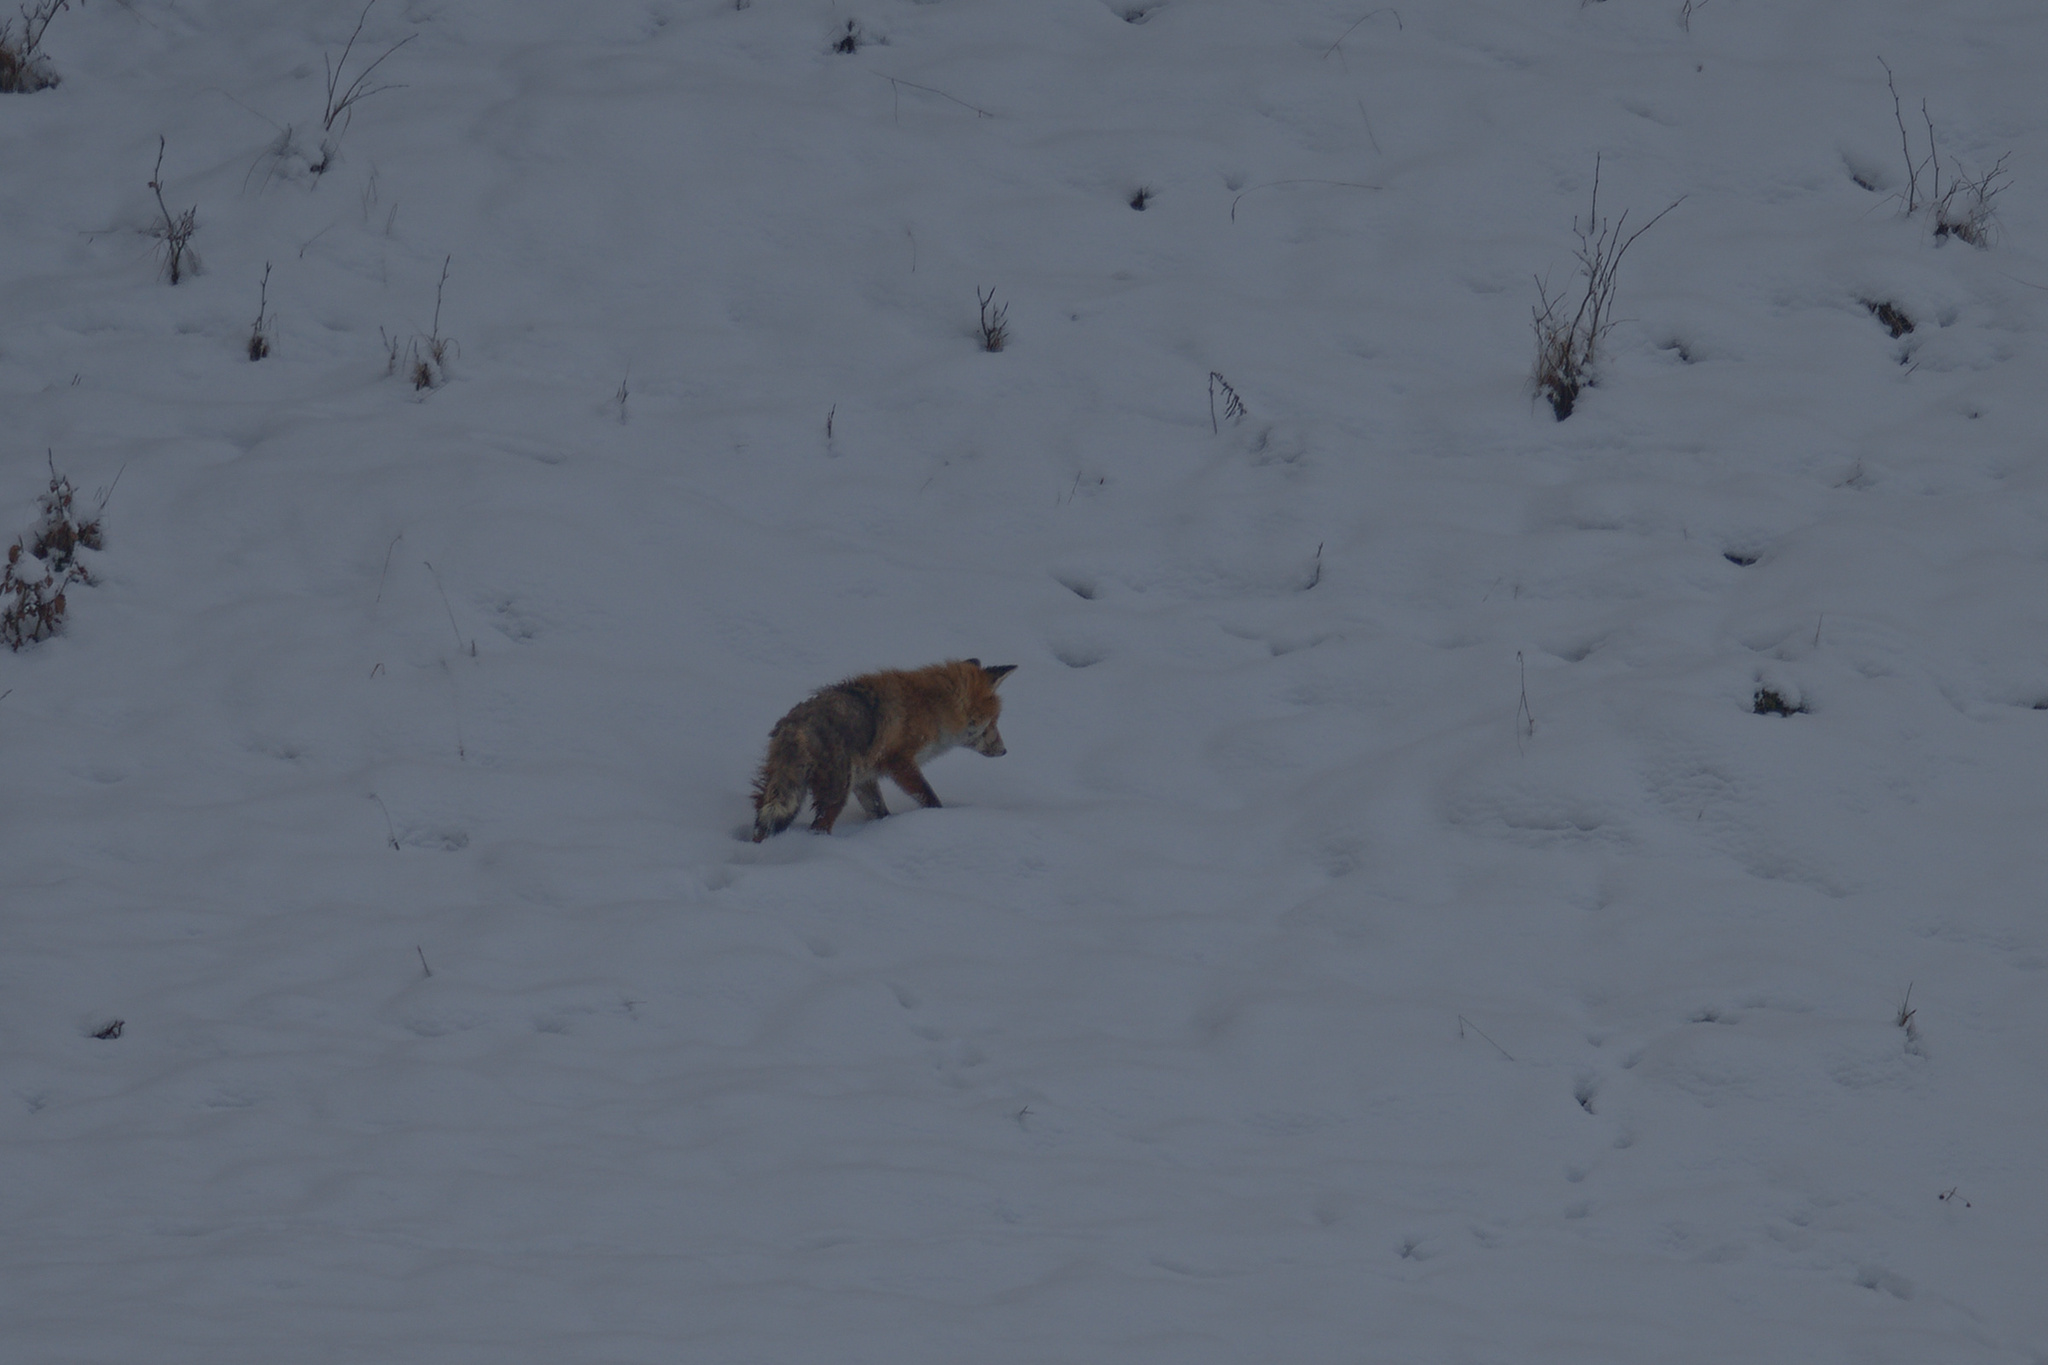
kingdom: Animalia
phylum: Chordata
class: Mammalia
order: Carnivora
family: Canidae
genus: Vulpes
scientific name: Vulpes vulpes
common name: Red fox
